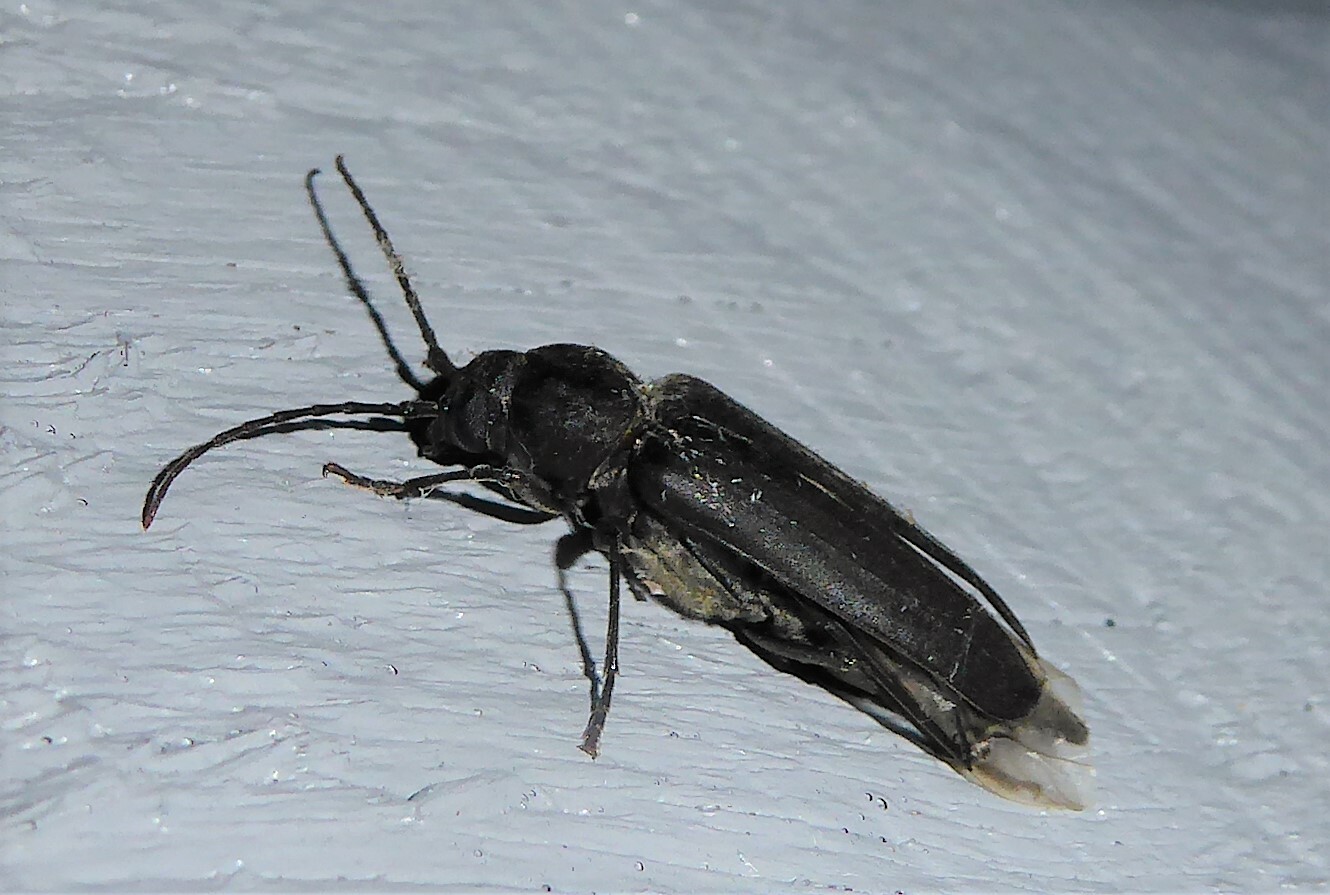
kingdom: Animalia
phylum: Arthropoda
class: Insecta
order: Coleoptera
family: Cerambycidae
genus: Arhopalus
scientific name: Arhopalus ferus
